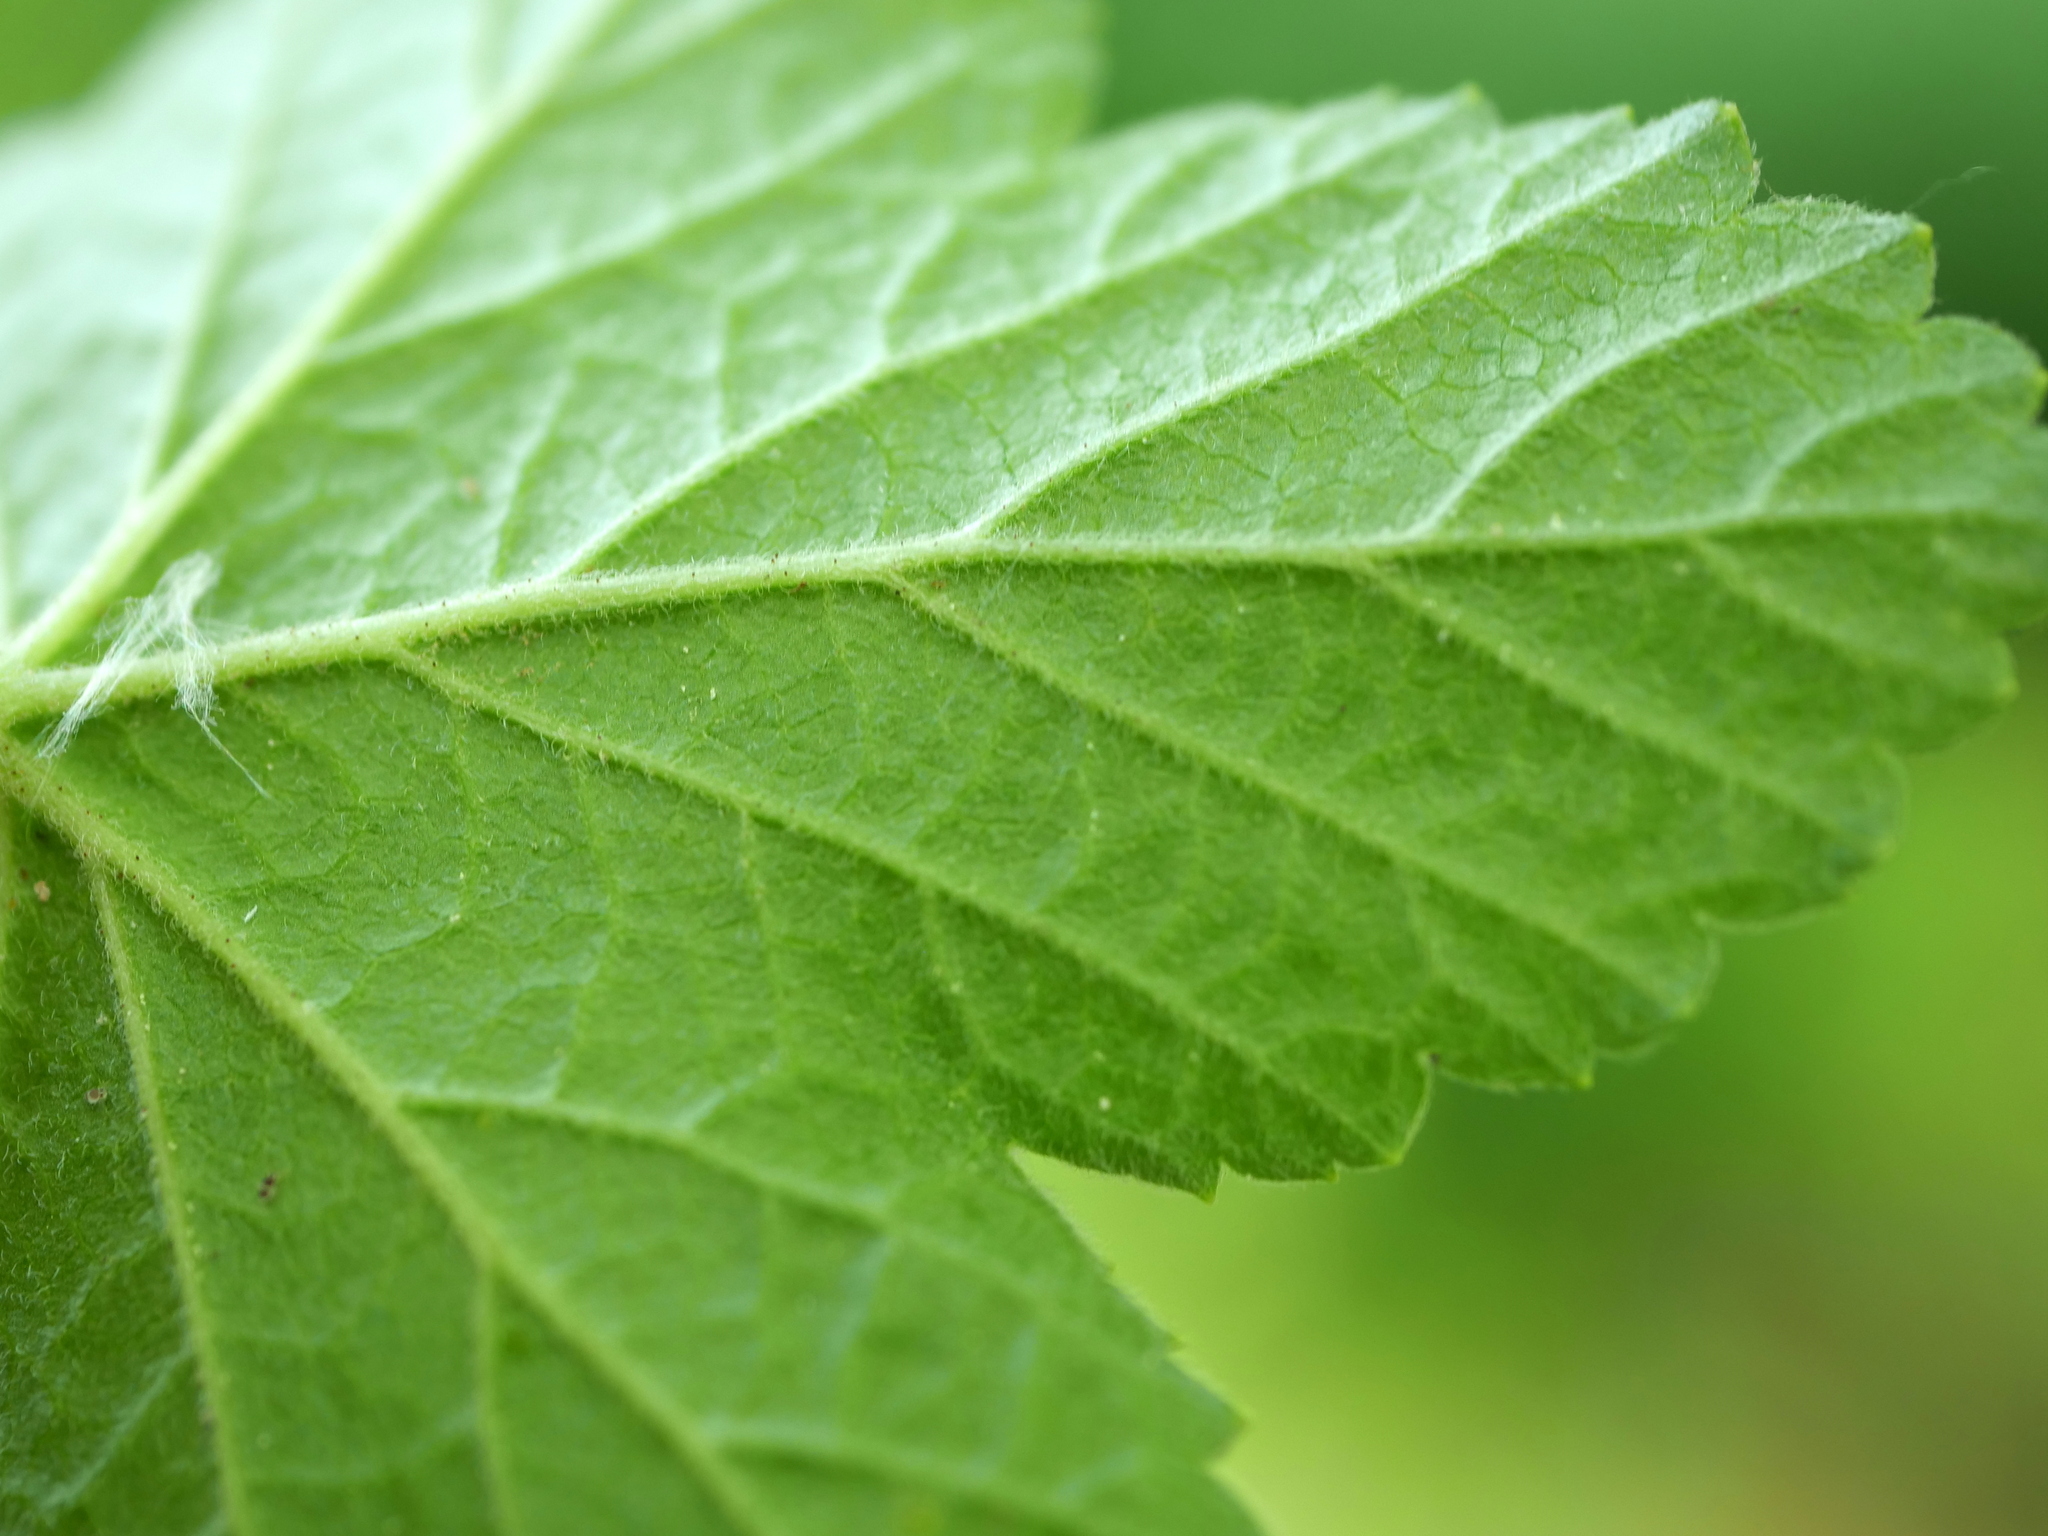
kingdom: Plantae
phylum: Tracheophyta
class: Magnoliopsida
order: Saxifragales
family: Grossulariaceae
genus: Ribes
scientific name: Ribes rubrum
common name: Red currant
